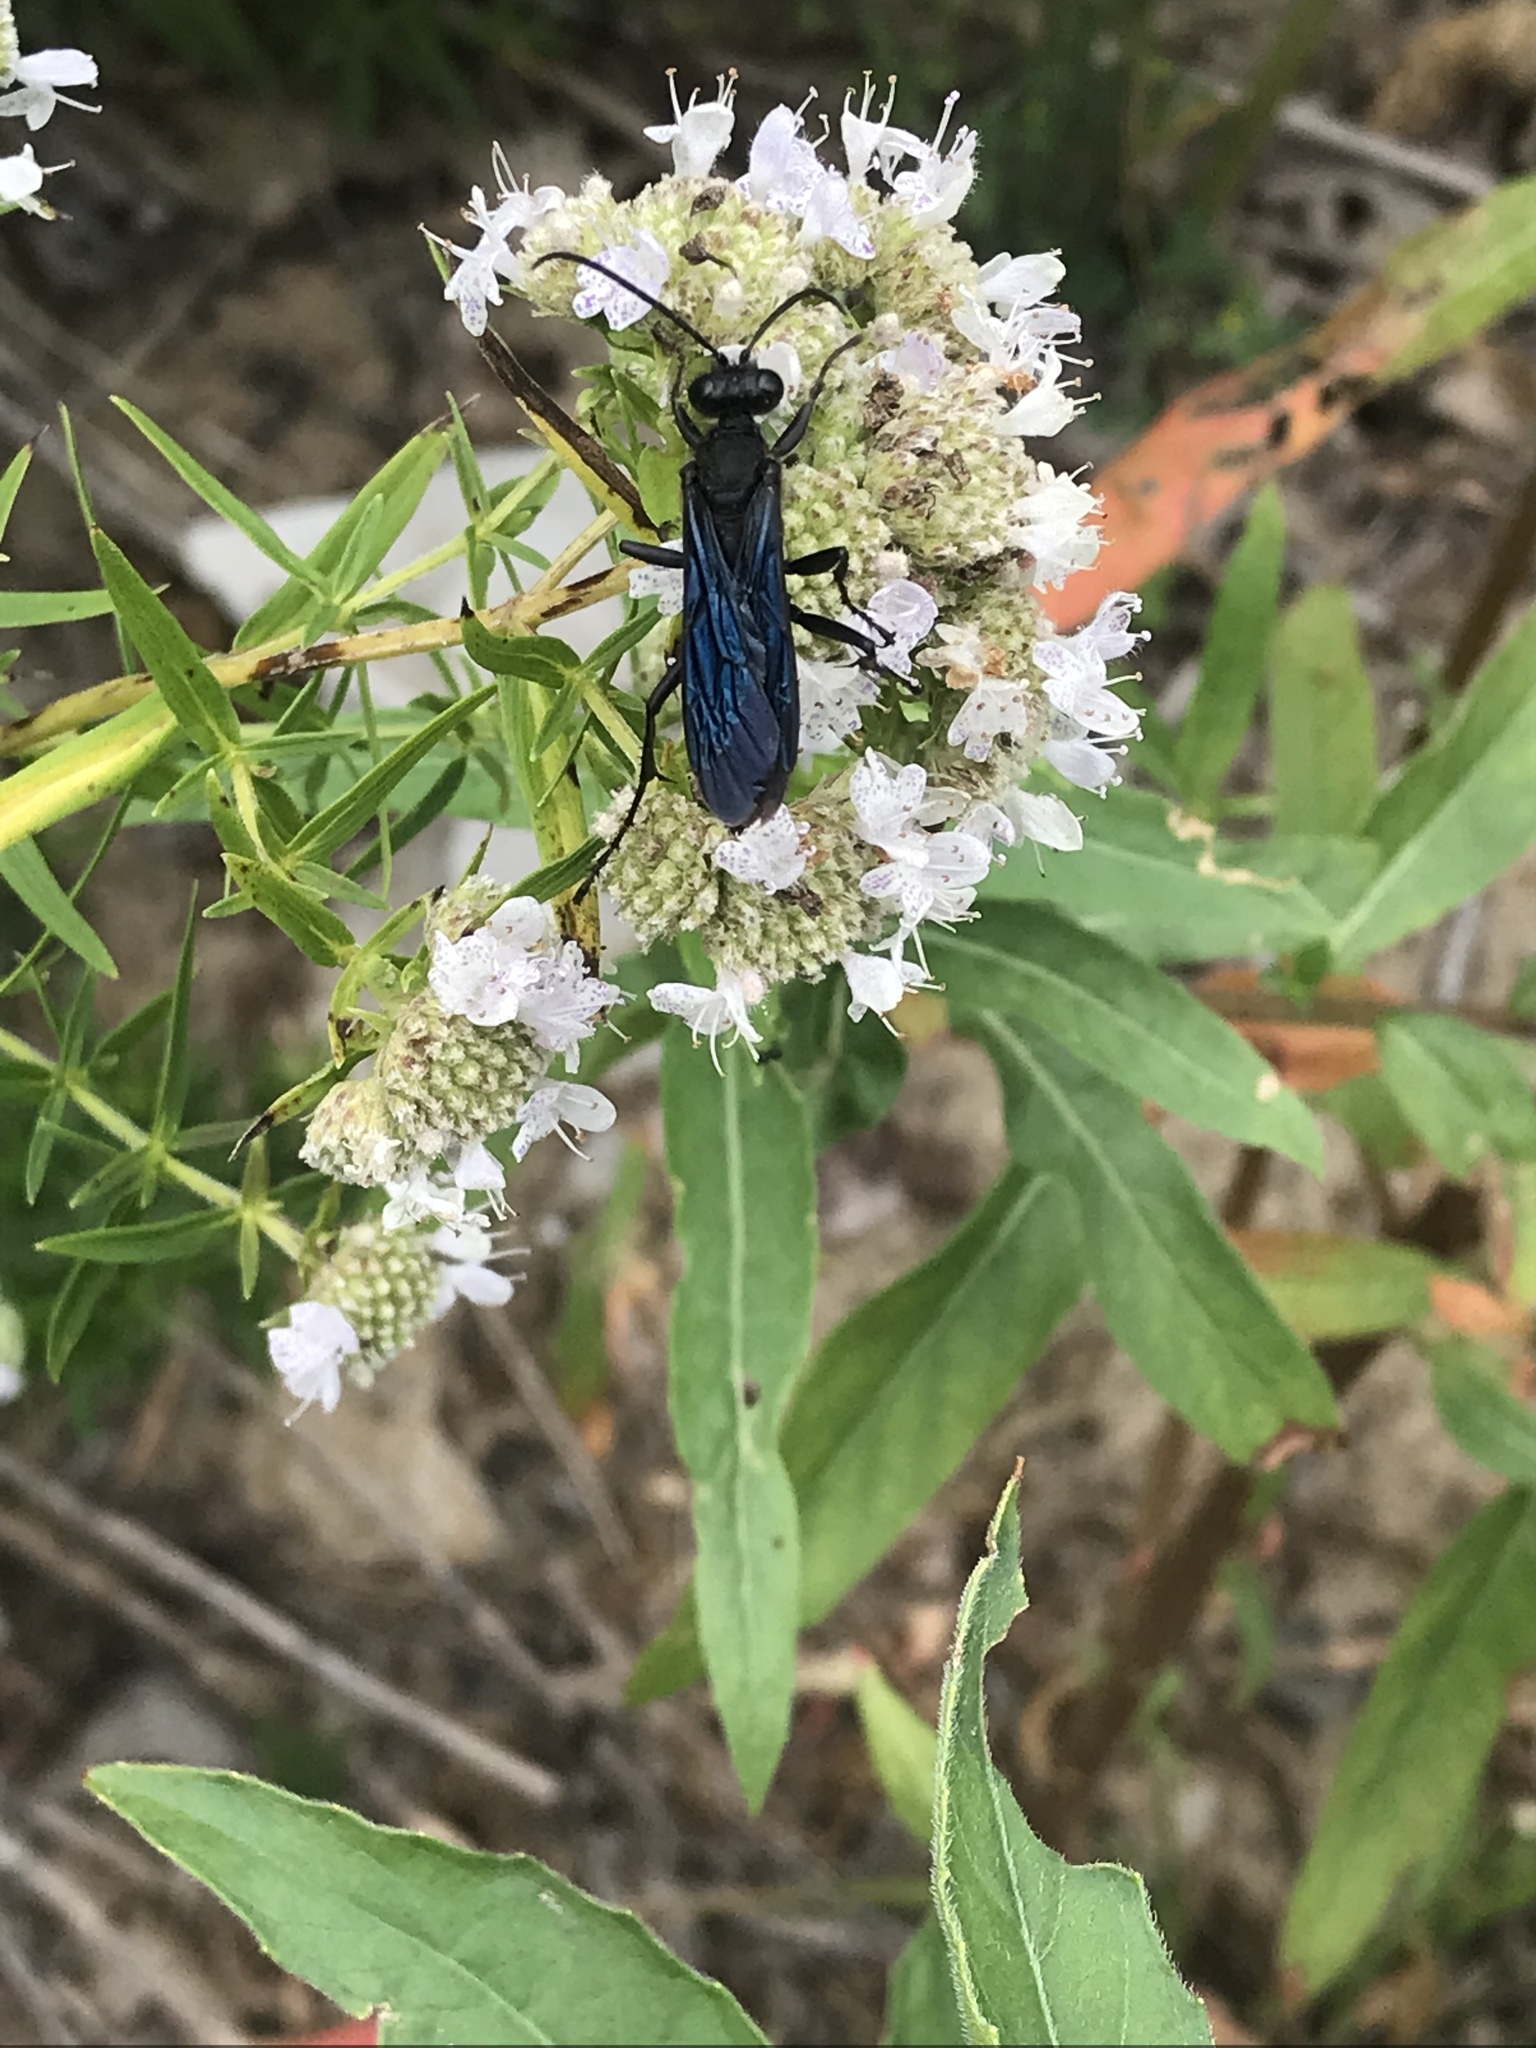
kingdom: Animalia
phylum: Arthropoda
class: Insecta
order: Hymenoptera
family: Sphecidae
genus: Sphex
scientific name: Sphex pensylvanicus
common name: Great black digger wasp
